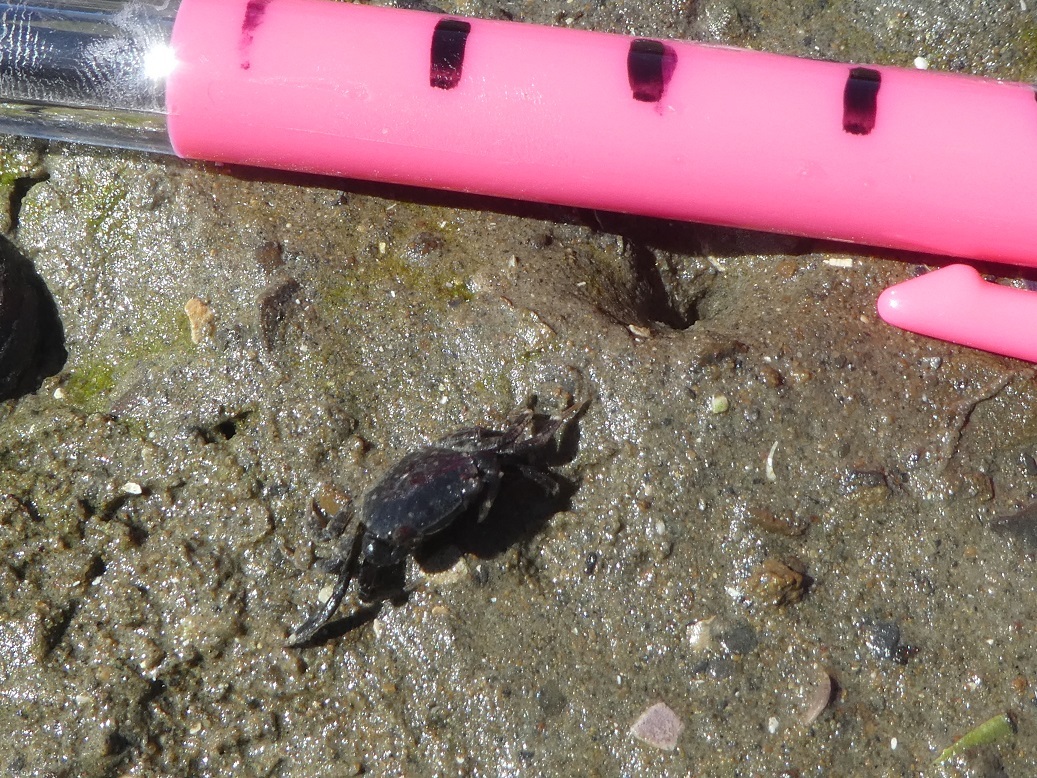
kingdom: Animalia
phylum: Arthropoda
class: Malacostraca
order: Decapoda
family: Varunidae
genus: Hemigrapsus
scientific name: Hemigrapsus crenulatus
